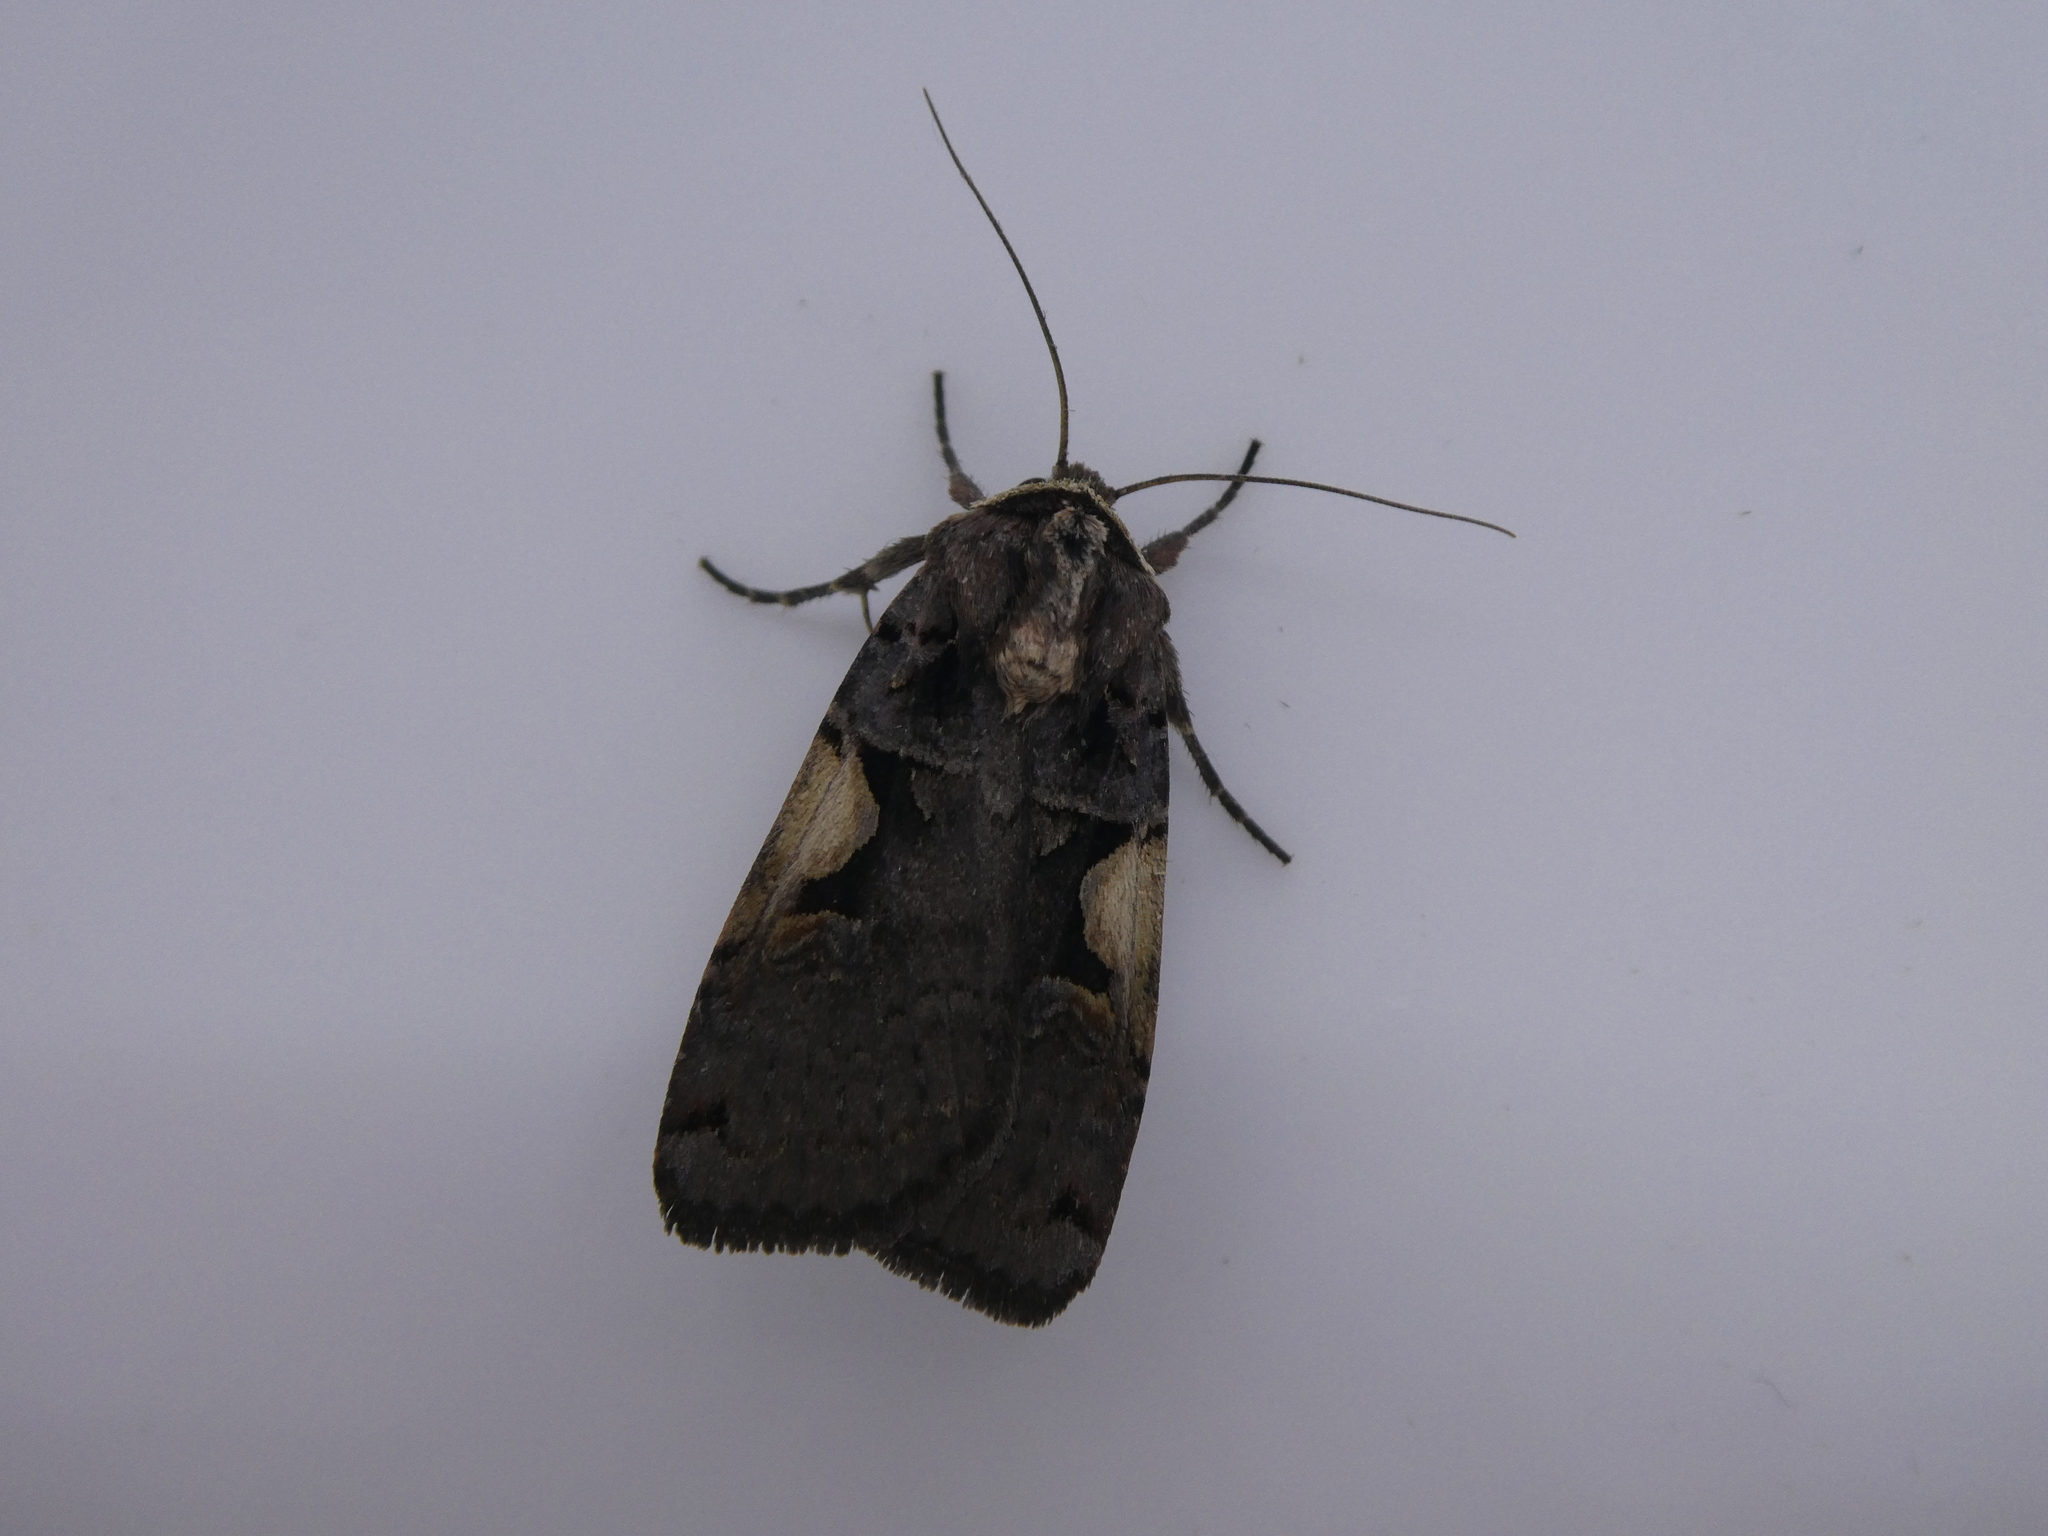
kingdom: Animalia
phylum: Arthropoda
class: Insecta
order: Lepidoptera
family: Noctuidae
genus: Xestia
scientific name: Xestia
